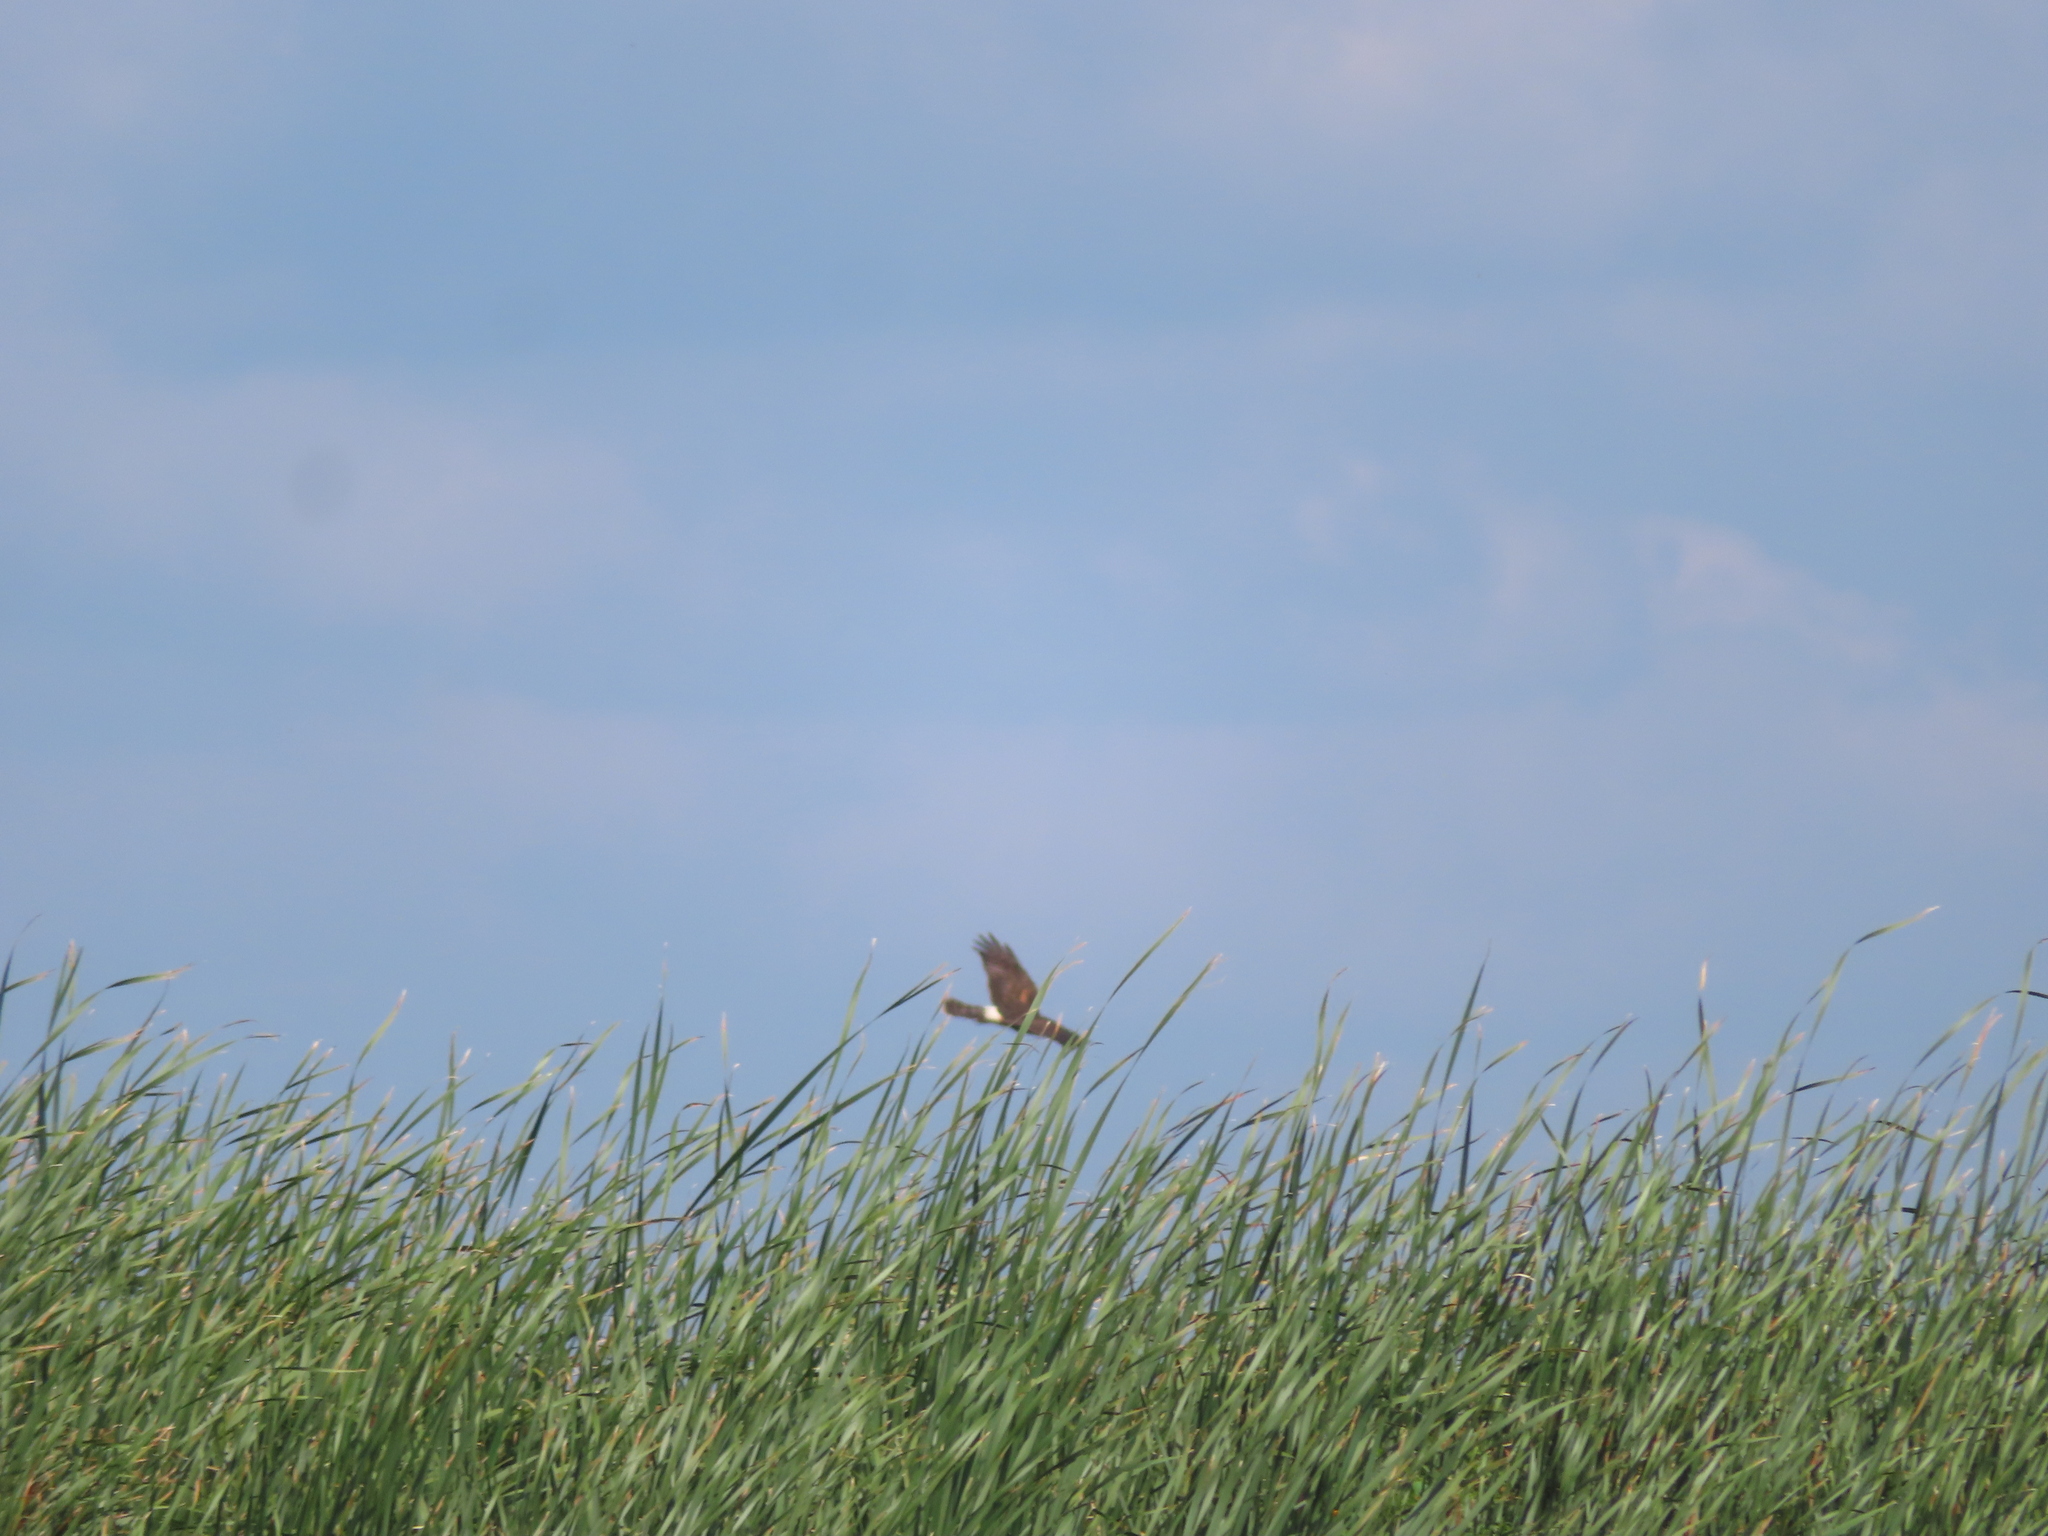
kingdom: Animalia
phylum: Chordata
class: Aves
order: Accipitriformes
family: Accipitridae
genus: Circus
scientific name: Circus cyaneus
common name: Hen harrier
